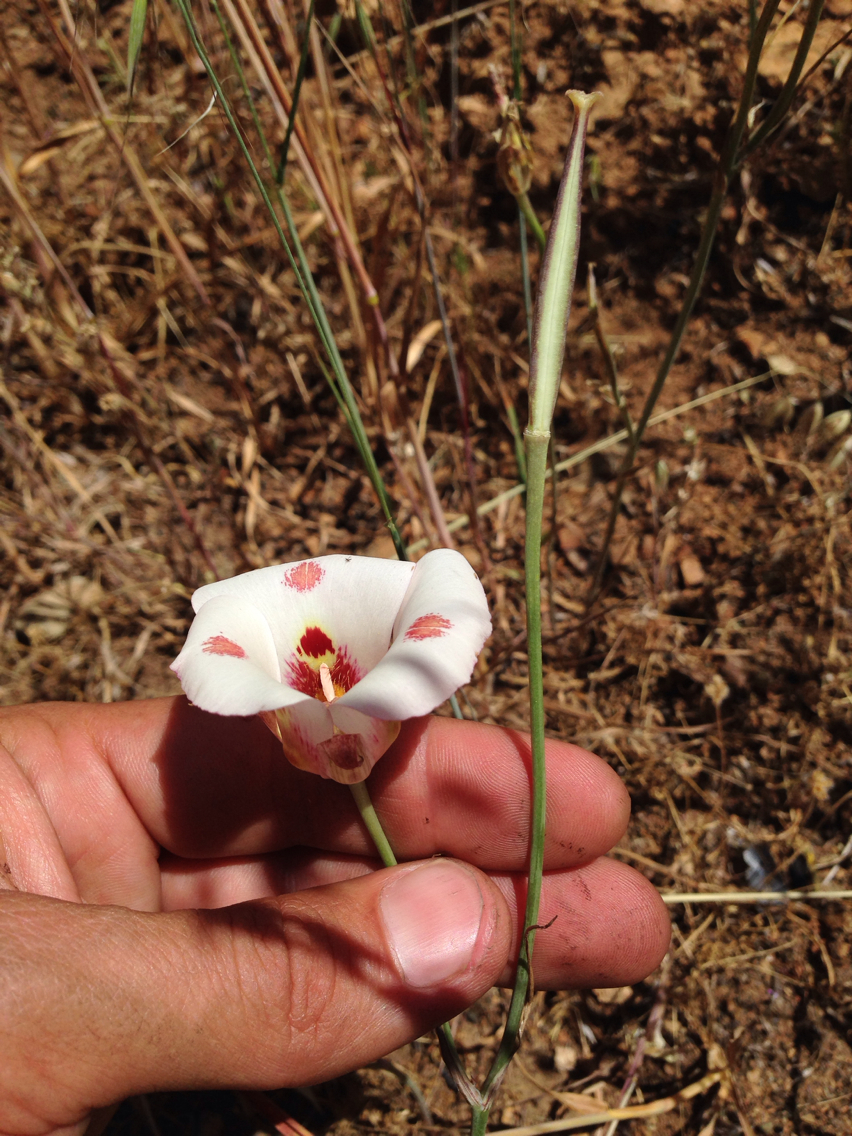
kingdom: Plantae
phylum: Tracheophyta
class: Liliopsida
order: Liliales
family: Liliaceae
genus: Calochortus
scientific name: Calochortus venustus
